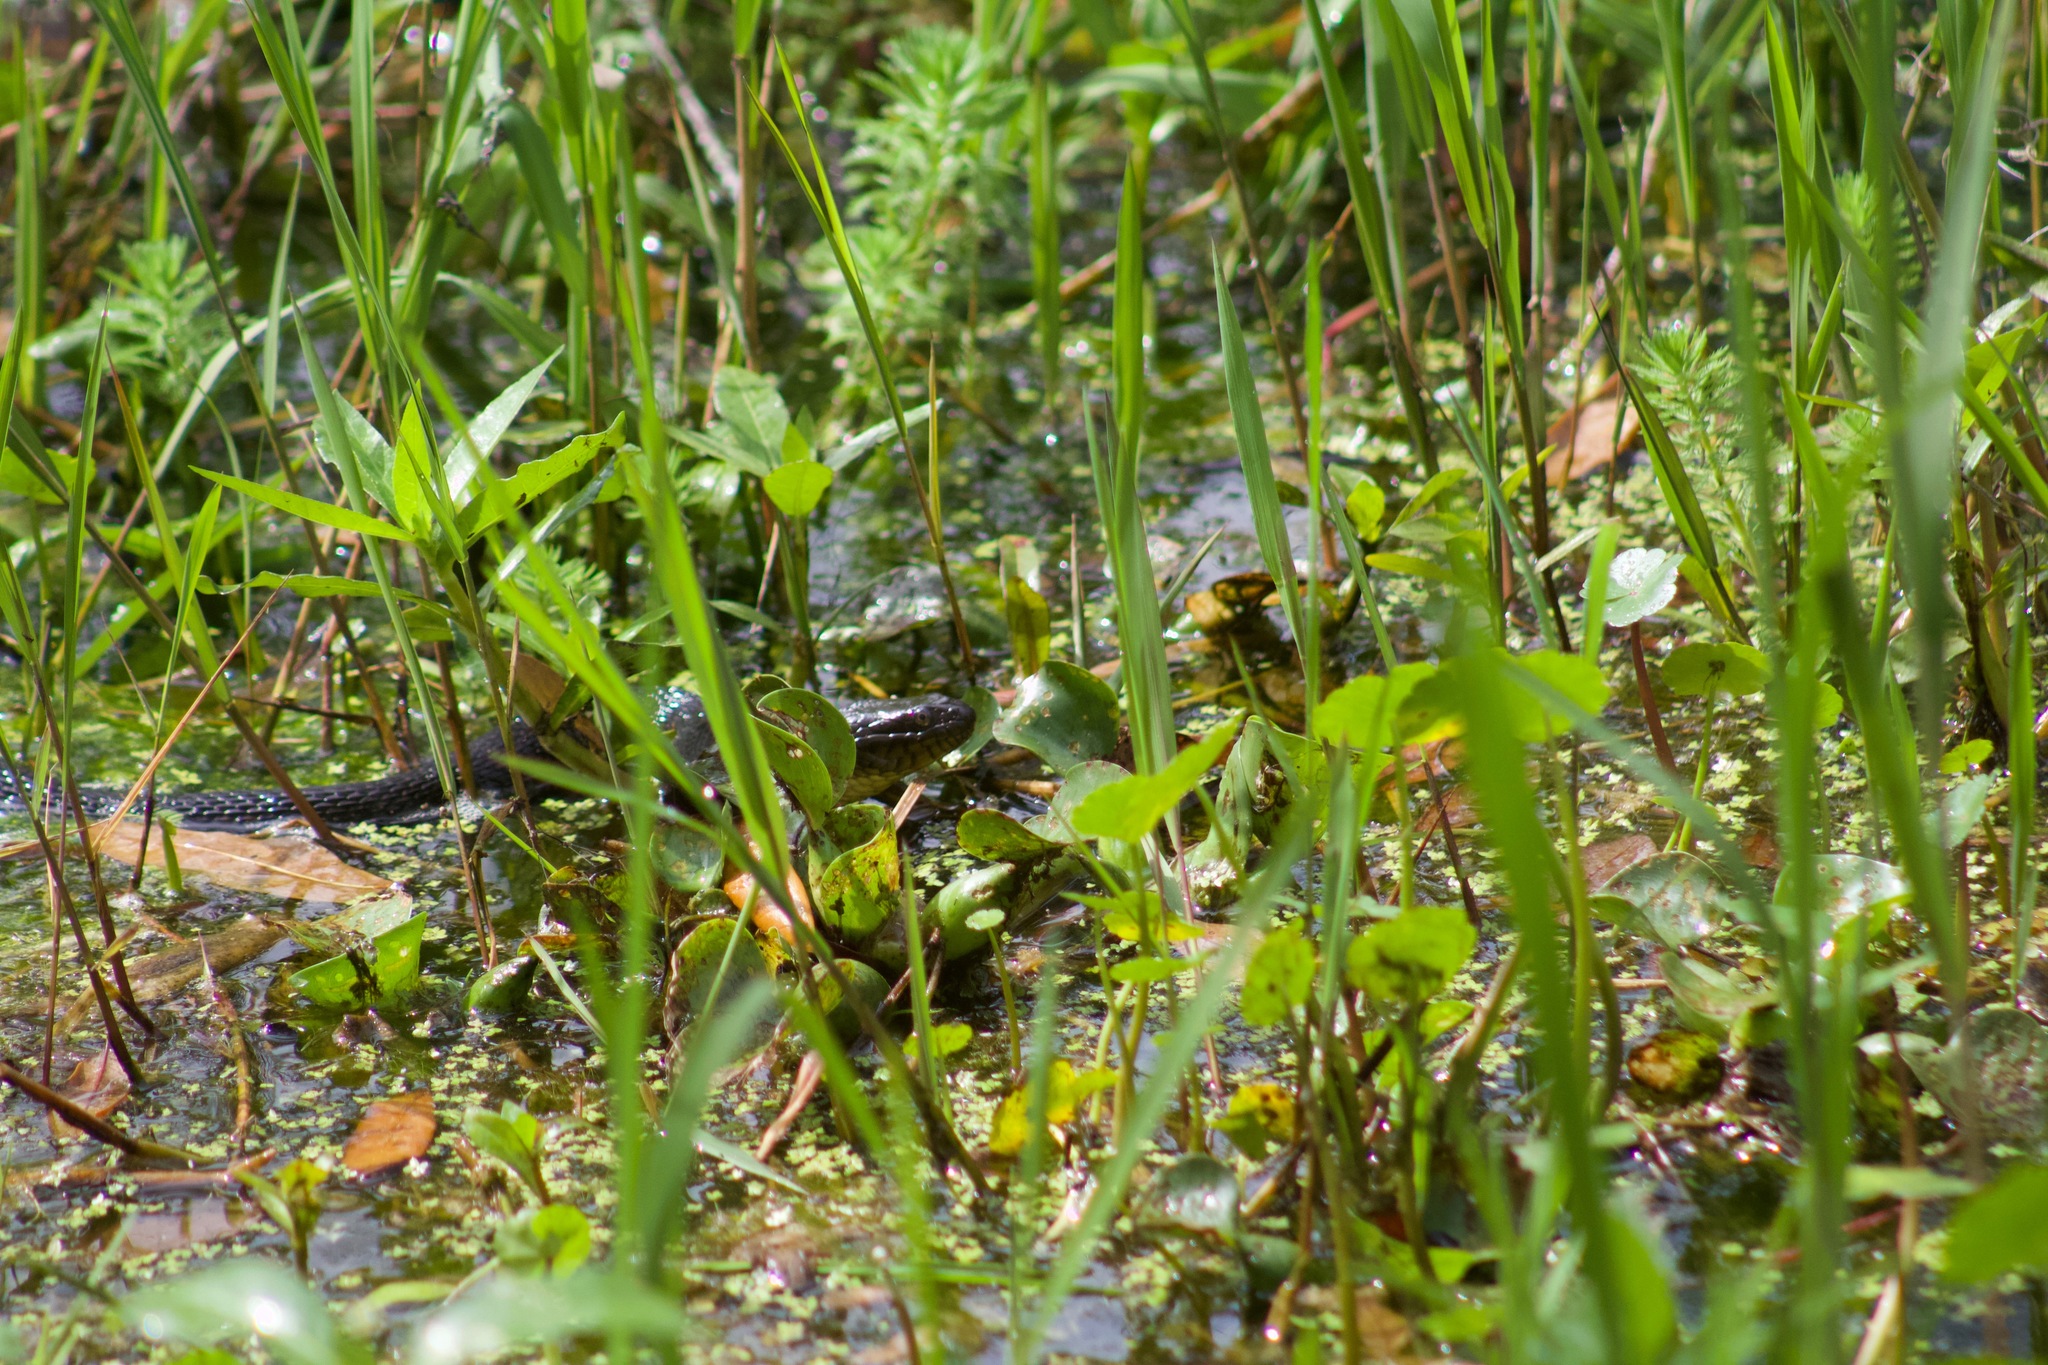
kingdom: Animalia
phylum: Chordata
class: Squamata
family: Colubridae
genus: Nerodia
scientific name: Nerodia cyclopion
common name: Mississippi green water snake
